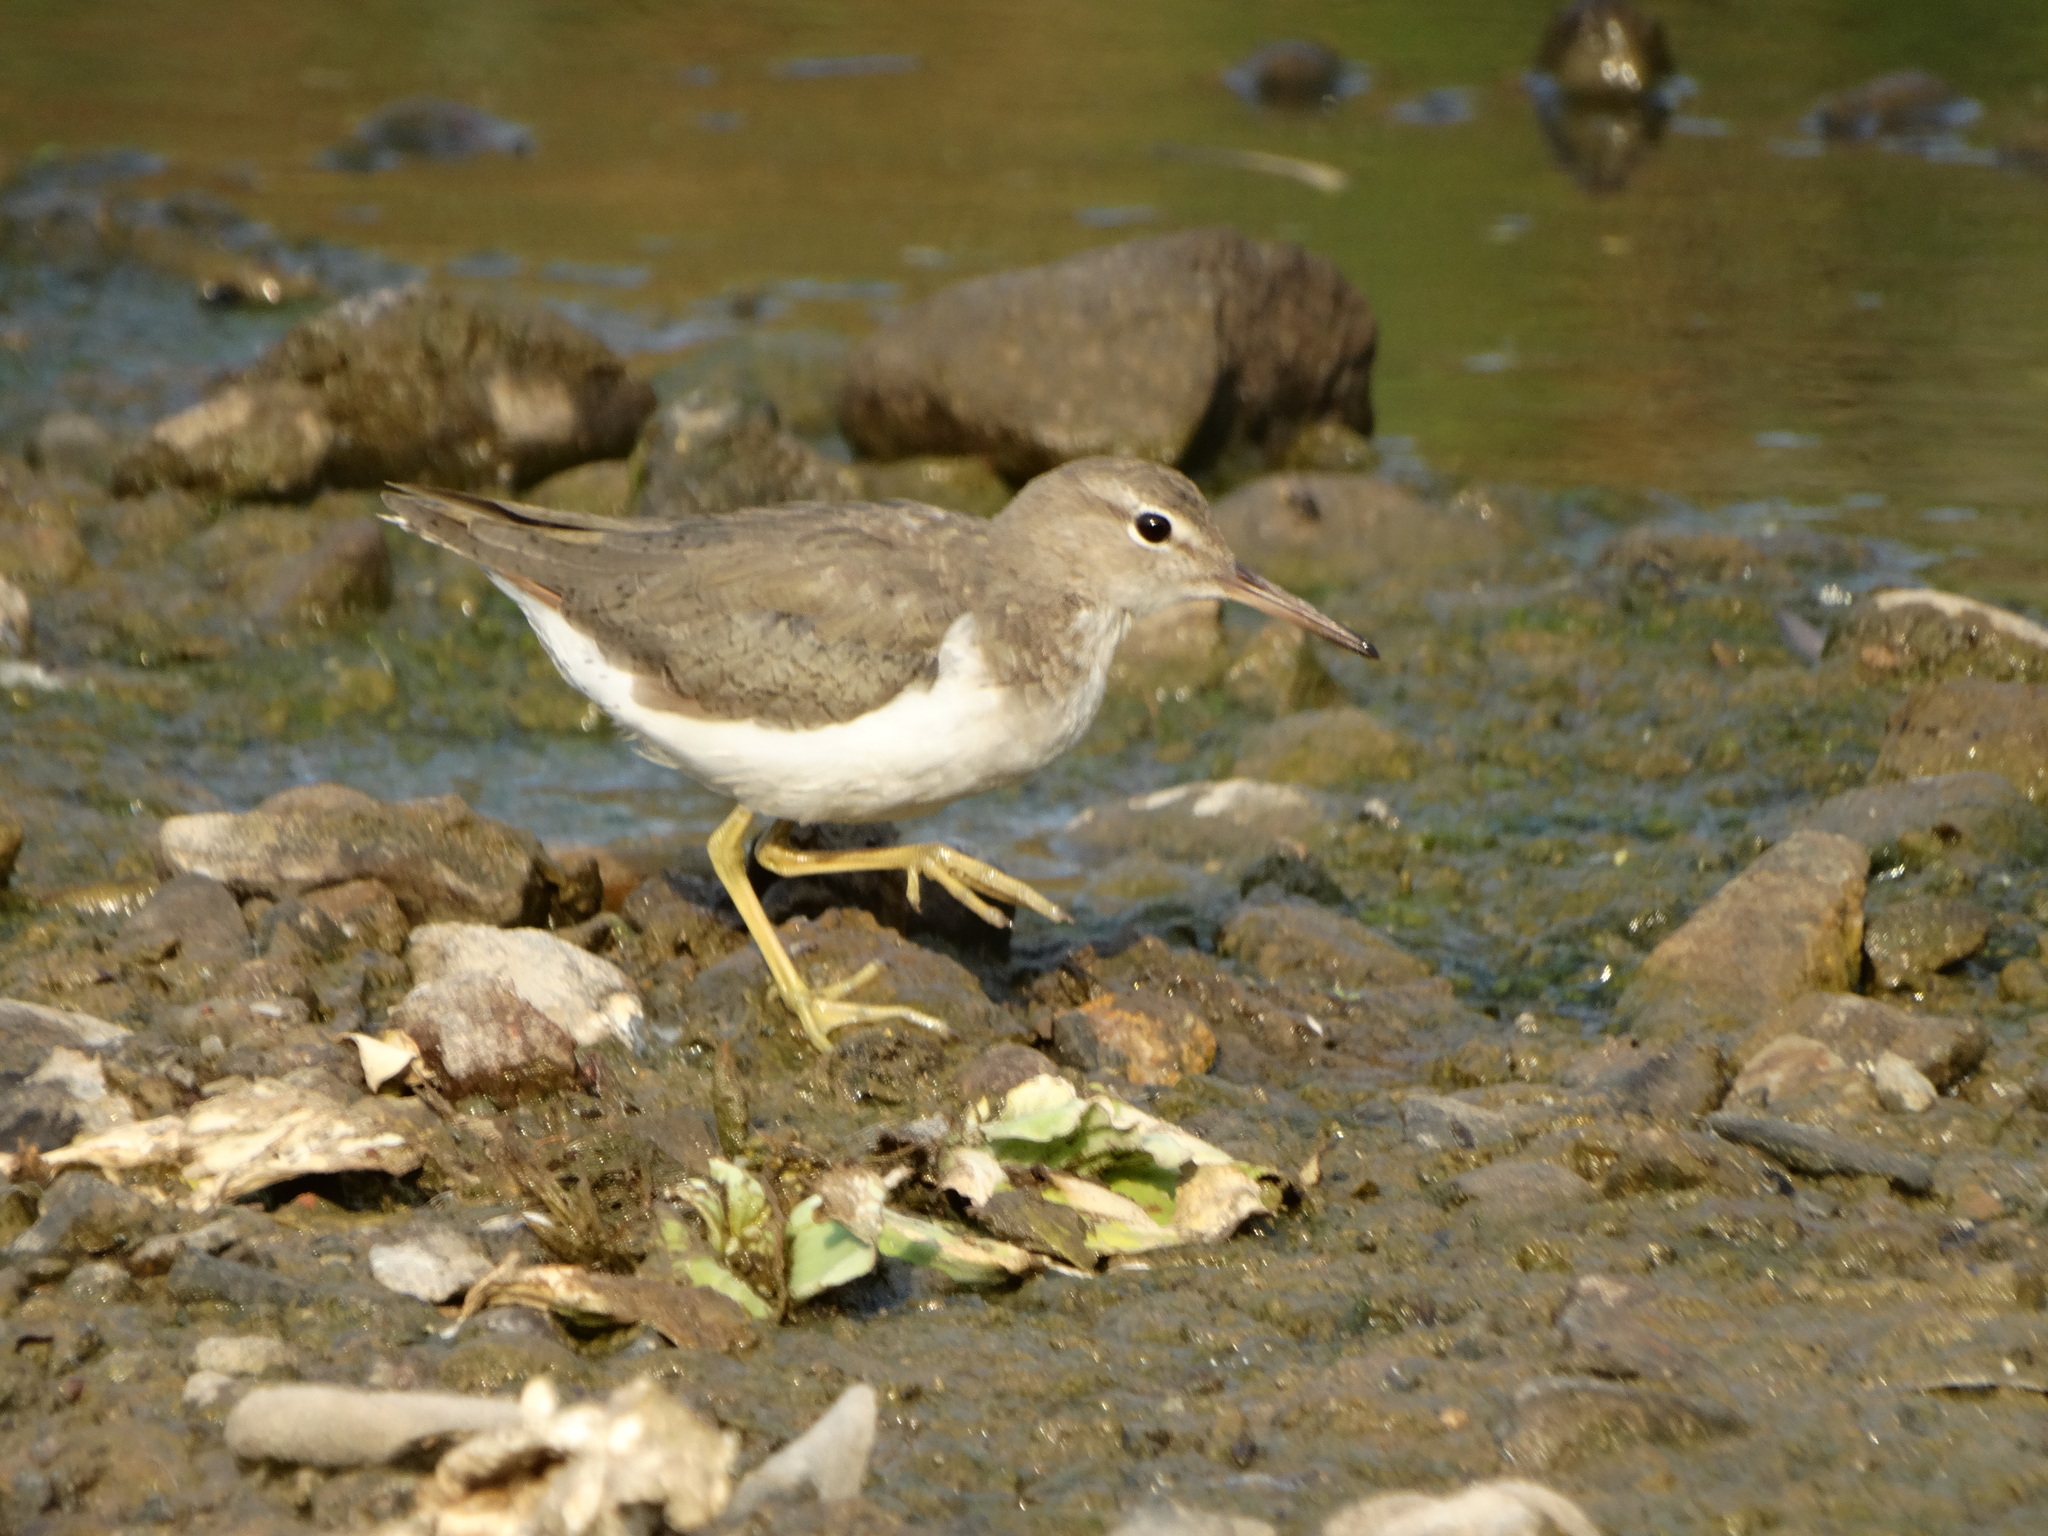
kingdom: Animalia
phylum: Chordata
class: Aves
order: Charadriiformes
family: Scolopacidae
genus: Actitis
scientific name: Actitis macularius
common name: Spotted sandpiper
